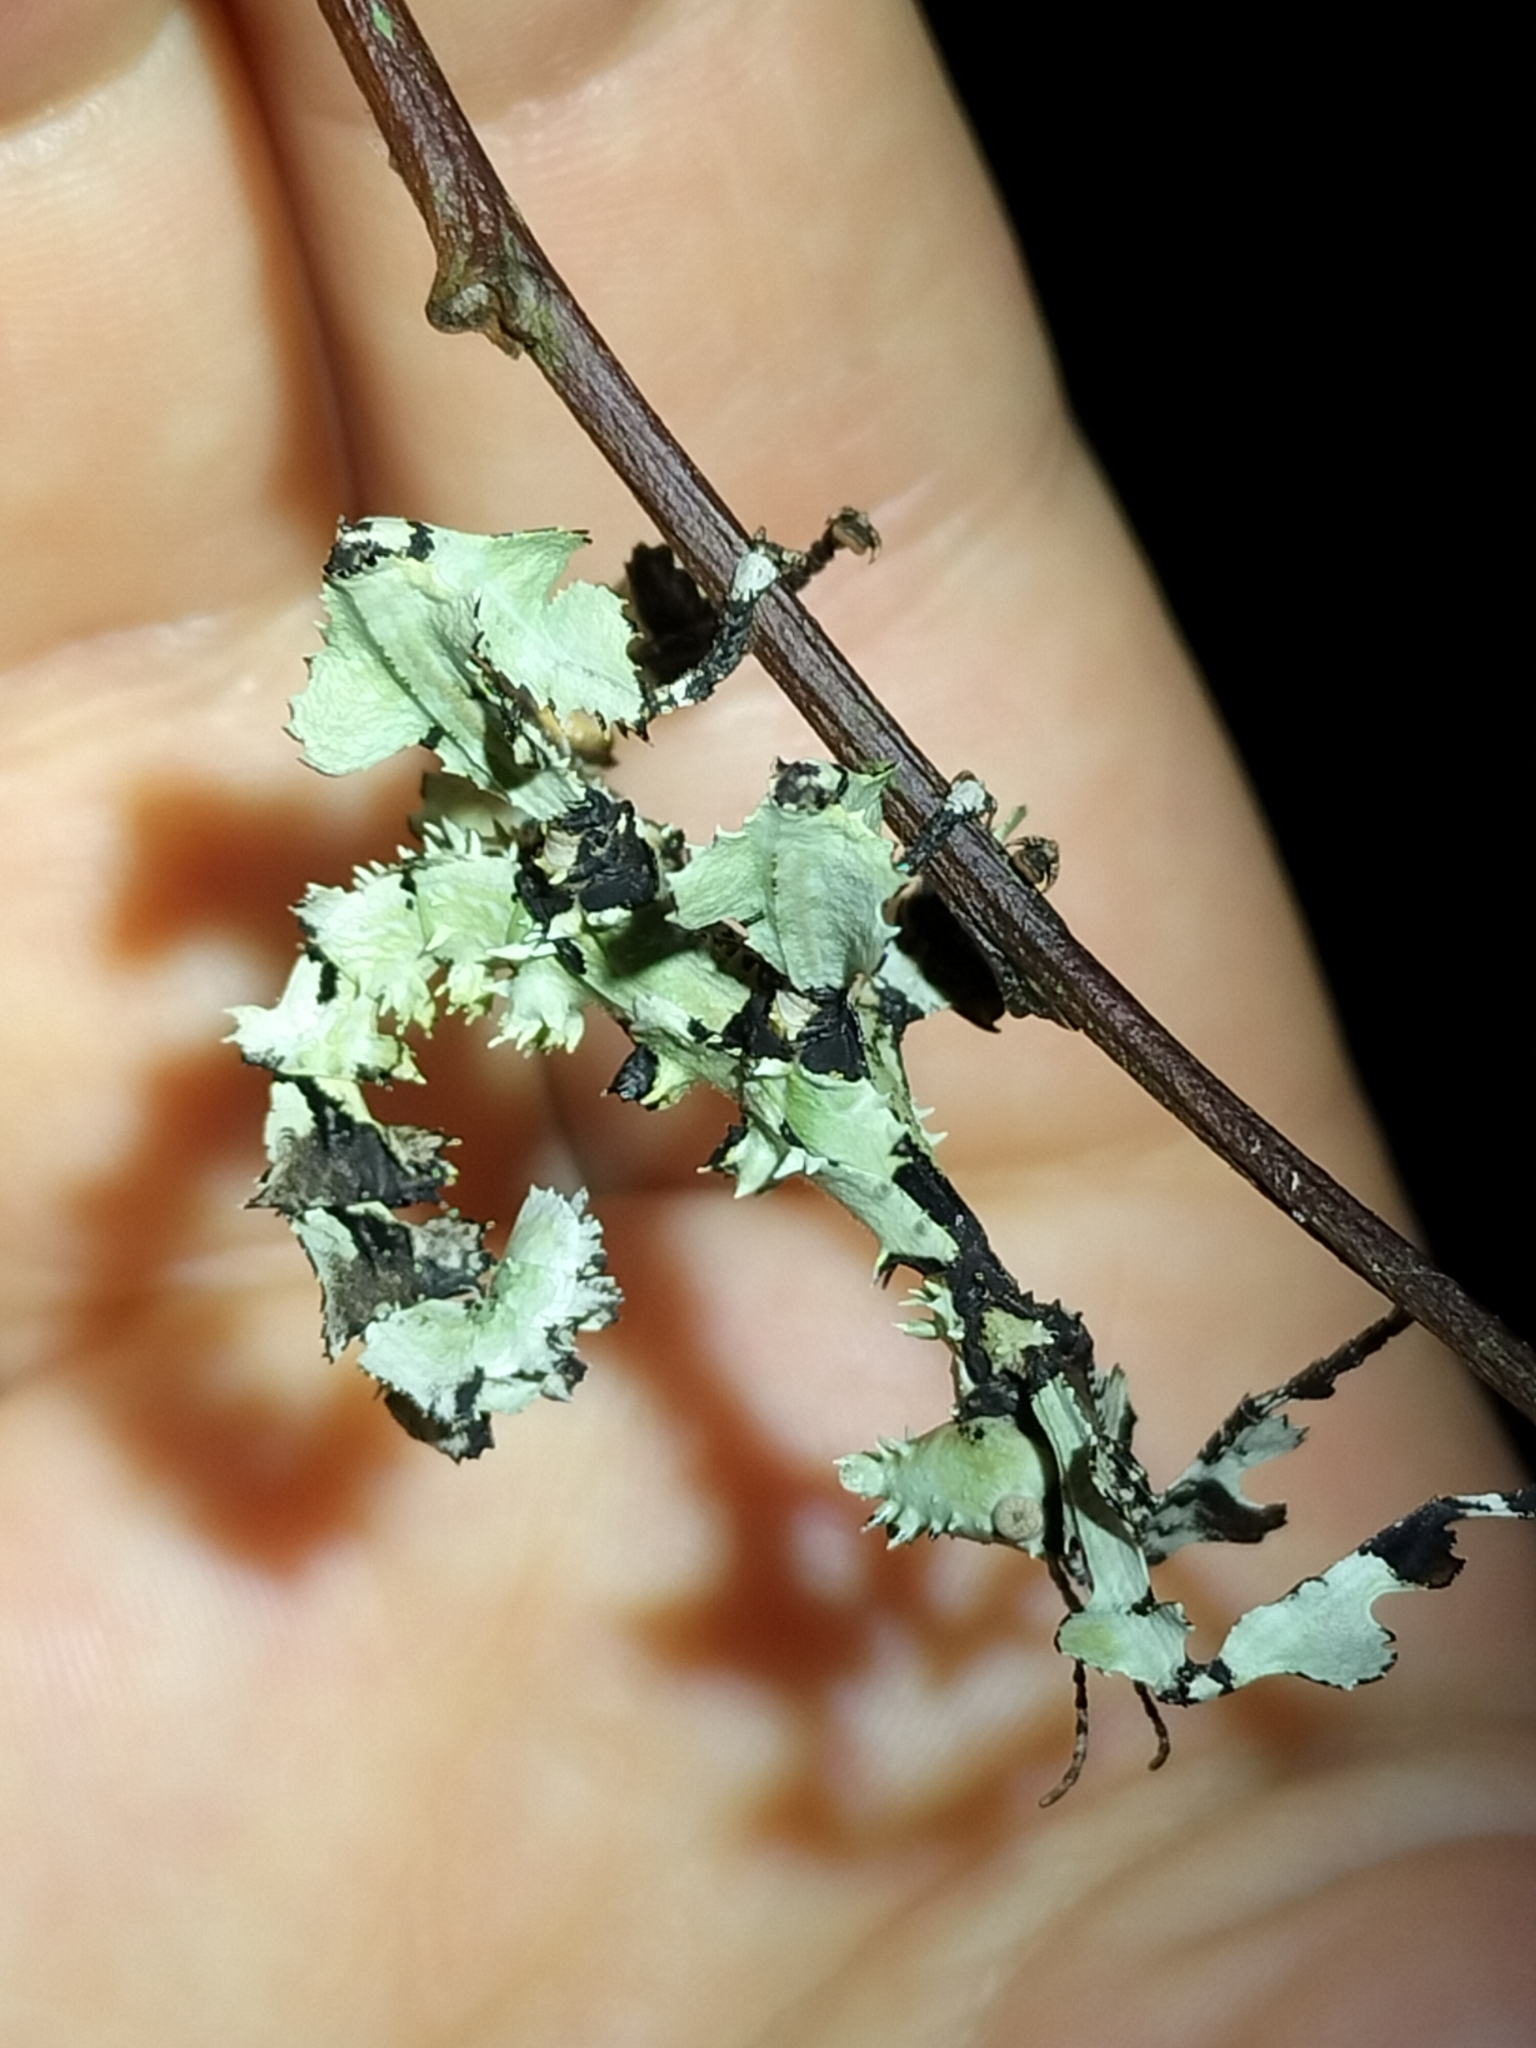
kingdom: Animalia
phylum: Arthropoda
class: Insecta
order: Phasmida
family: Phasmatidae
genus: Extatosoma
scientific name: Extatosoma tiaratum
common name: Macleay's spectre
